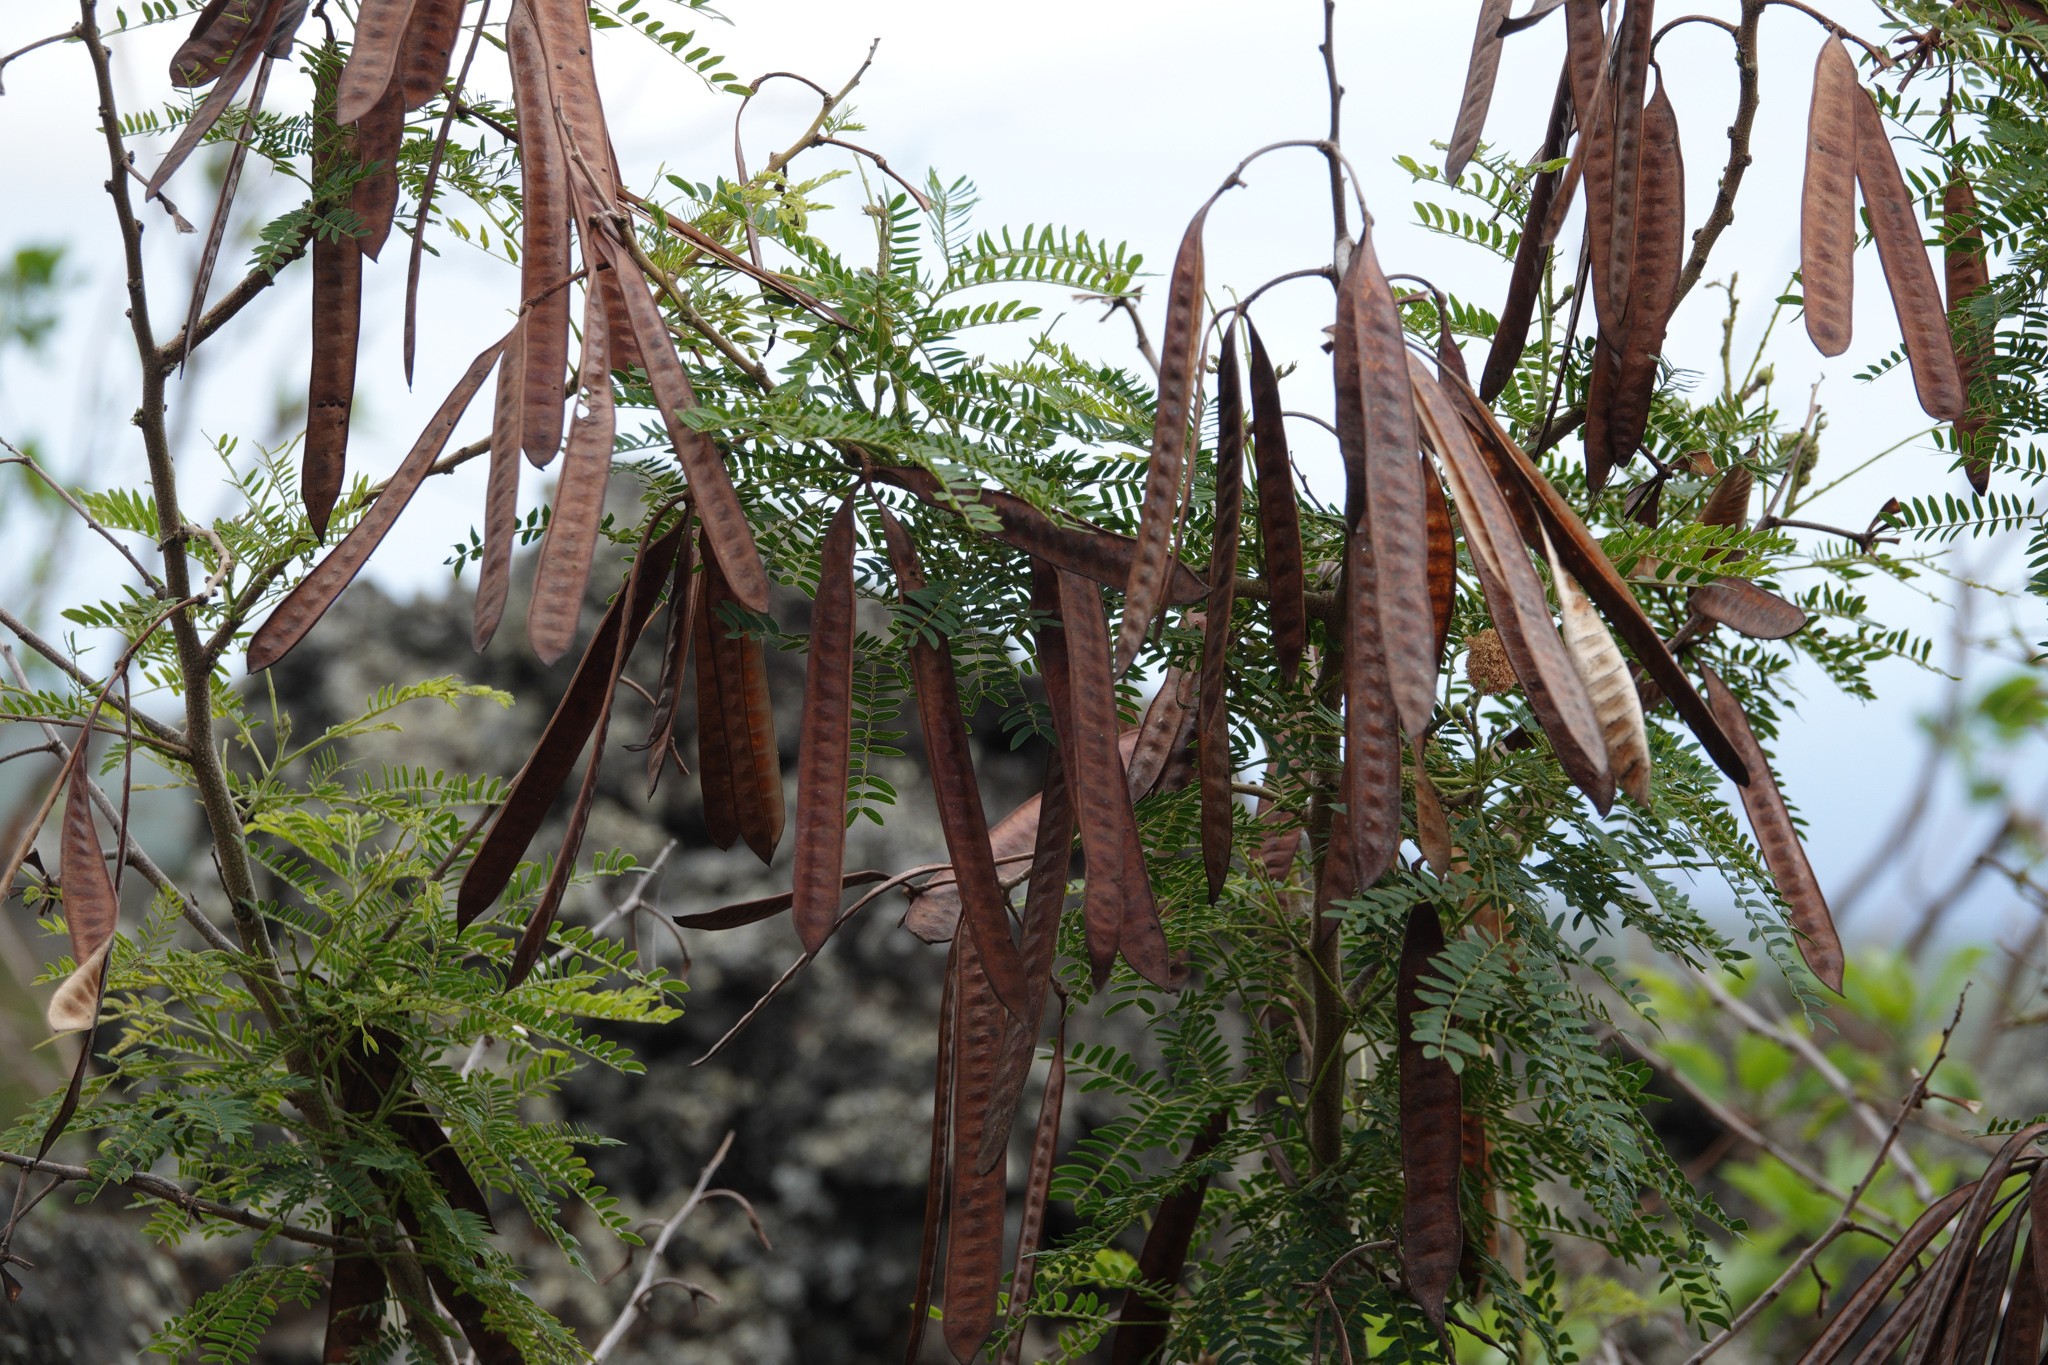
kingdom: Plantae
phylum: Tracheophyta
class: Magnoliopsida
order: Fabales
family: Fabaceae
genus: Leucaena
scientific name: Leucaena leucocephala
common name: White leadtree
